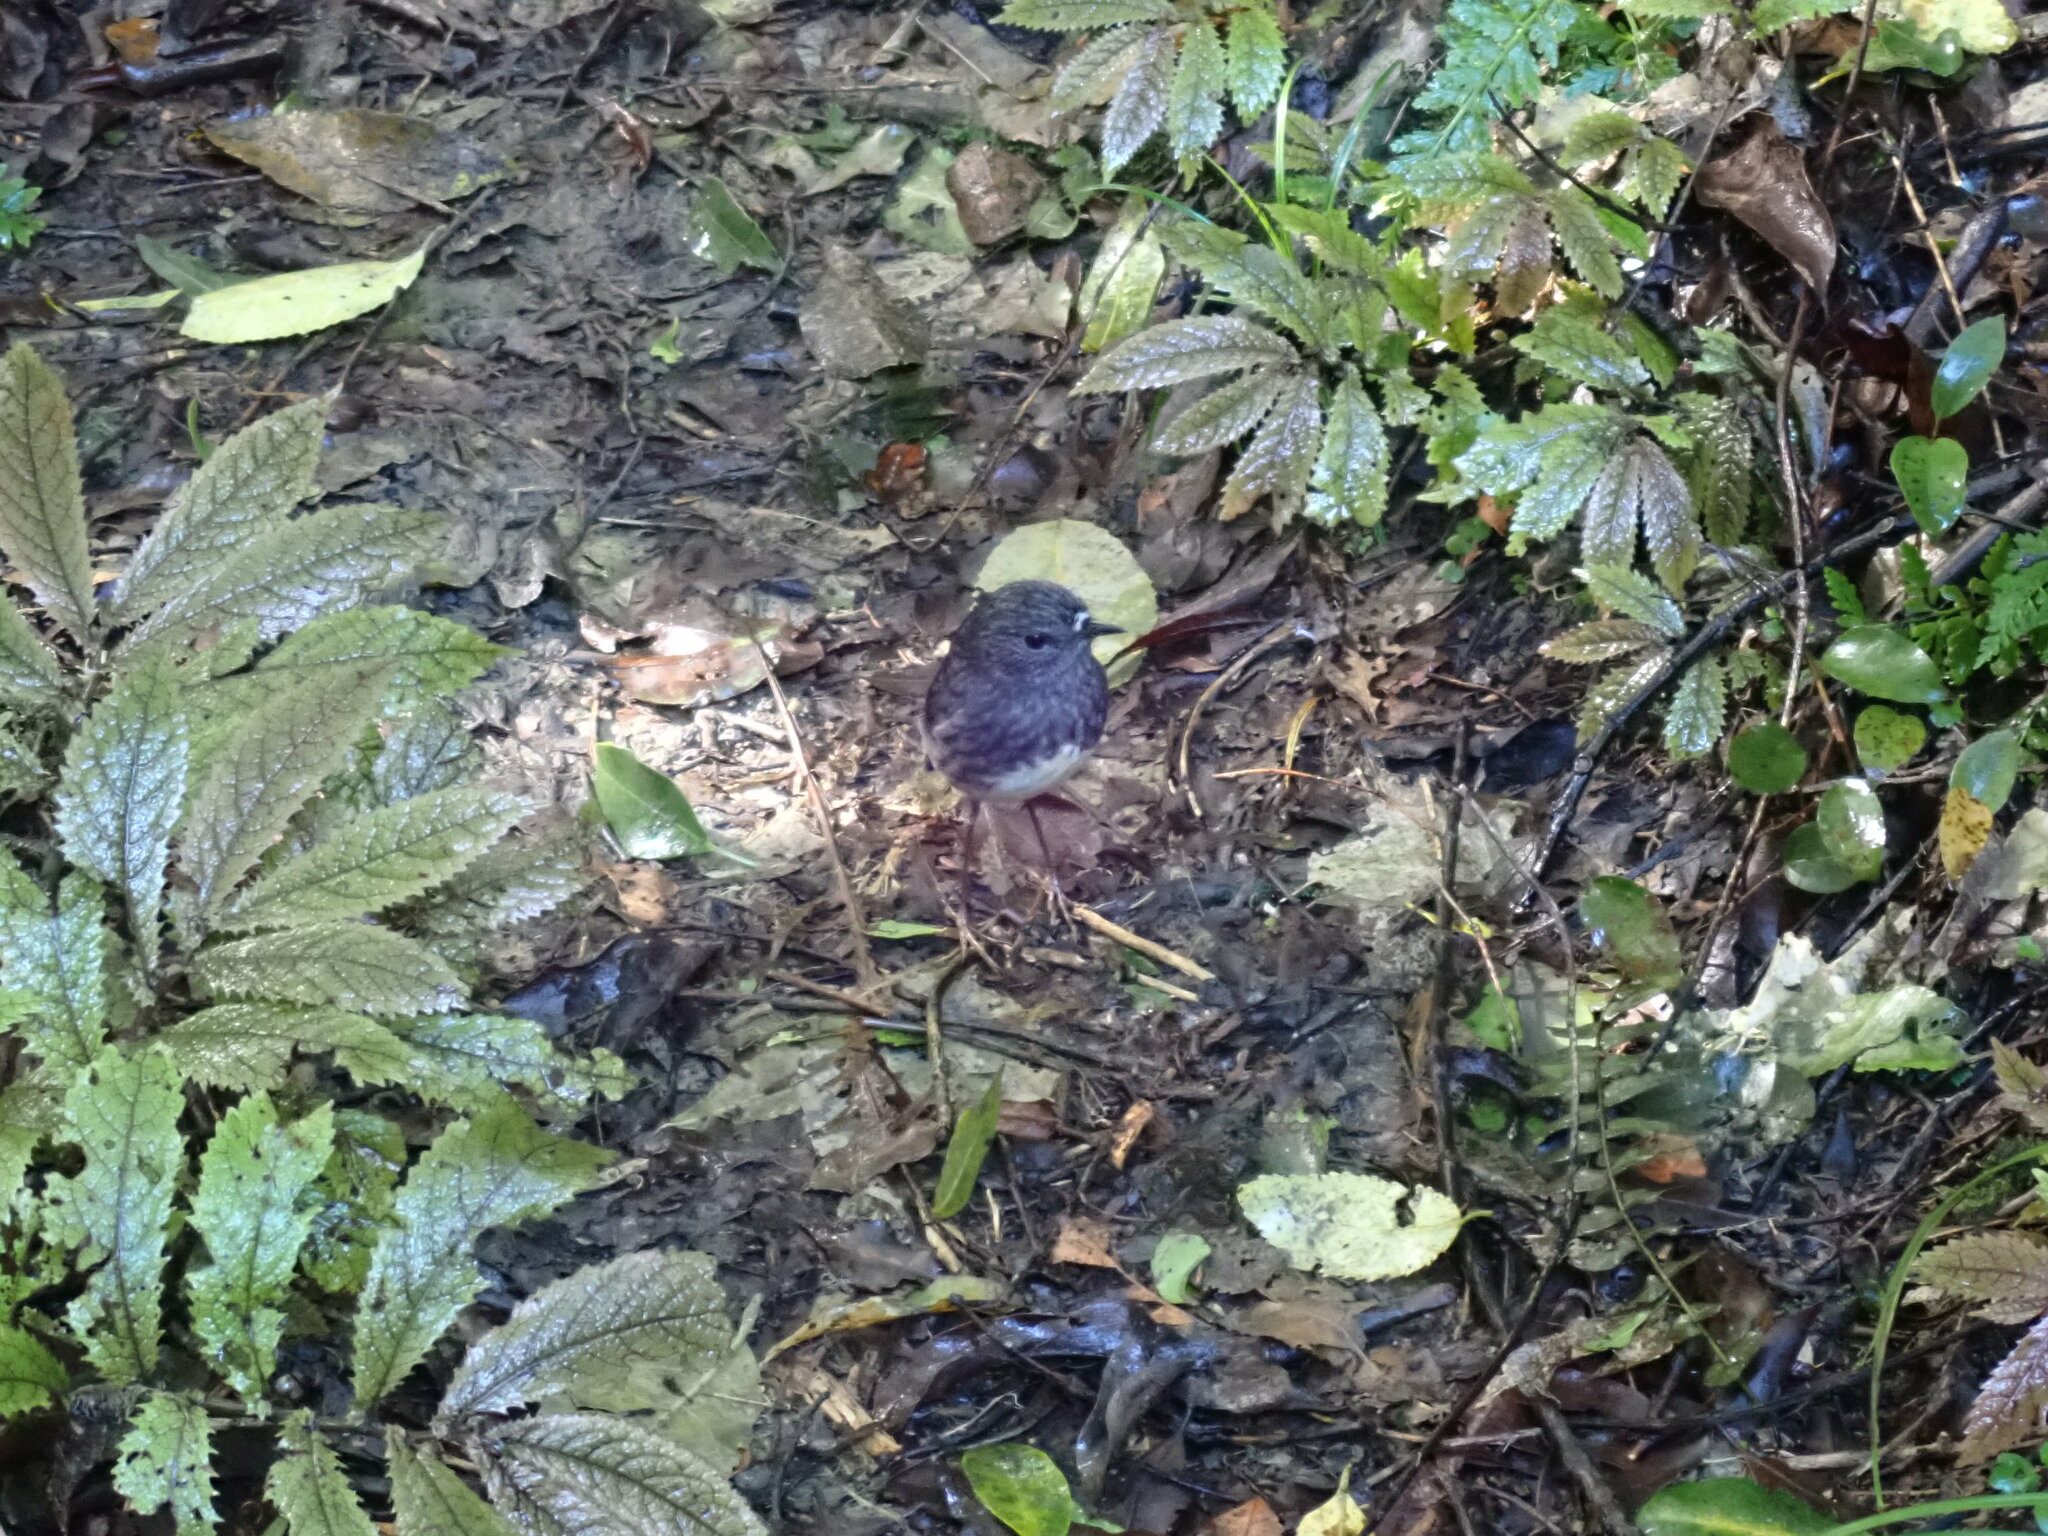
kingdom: Animalia
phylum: Chordata
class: Aves
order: Passeriformes
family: Petroicidae
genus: Petroica
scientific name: Petroica australis
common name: New zealand robin
